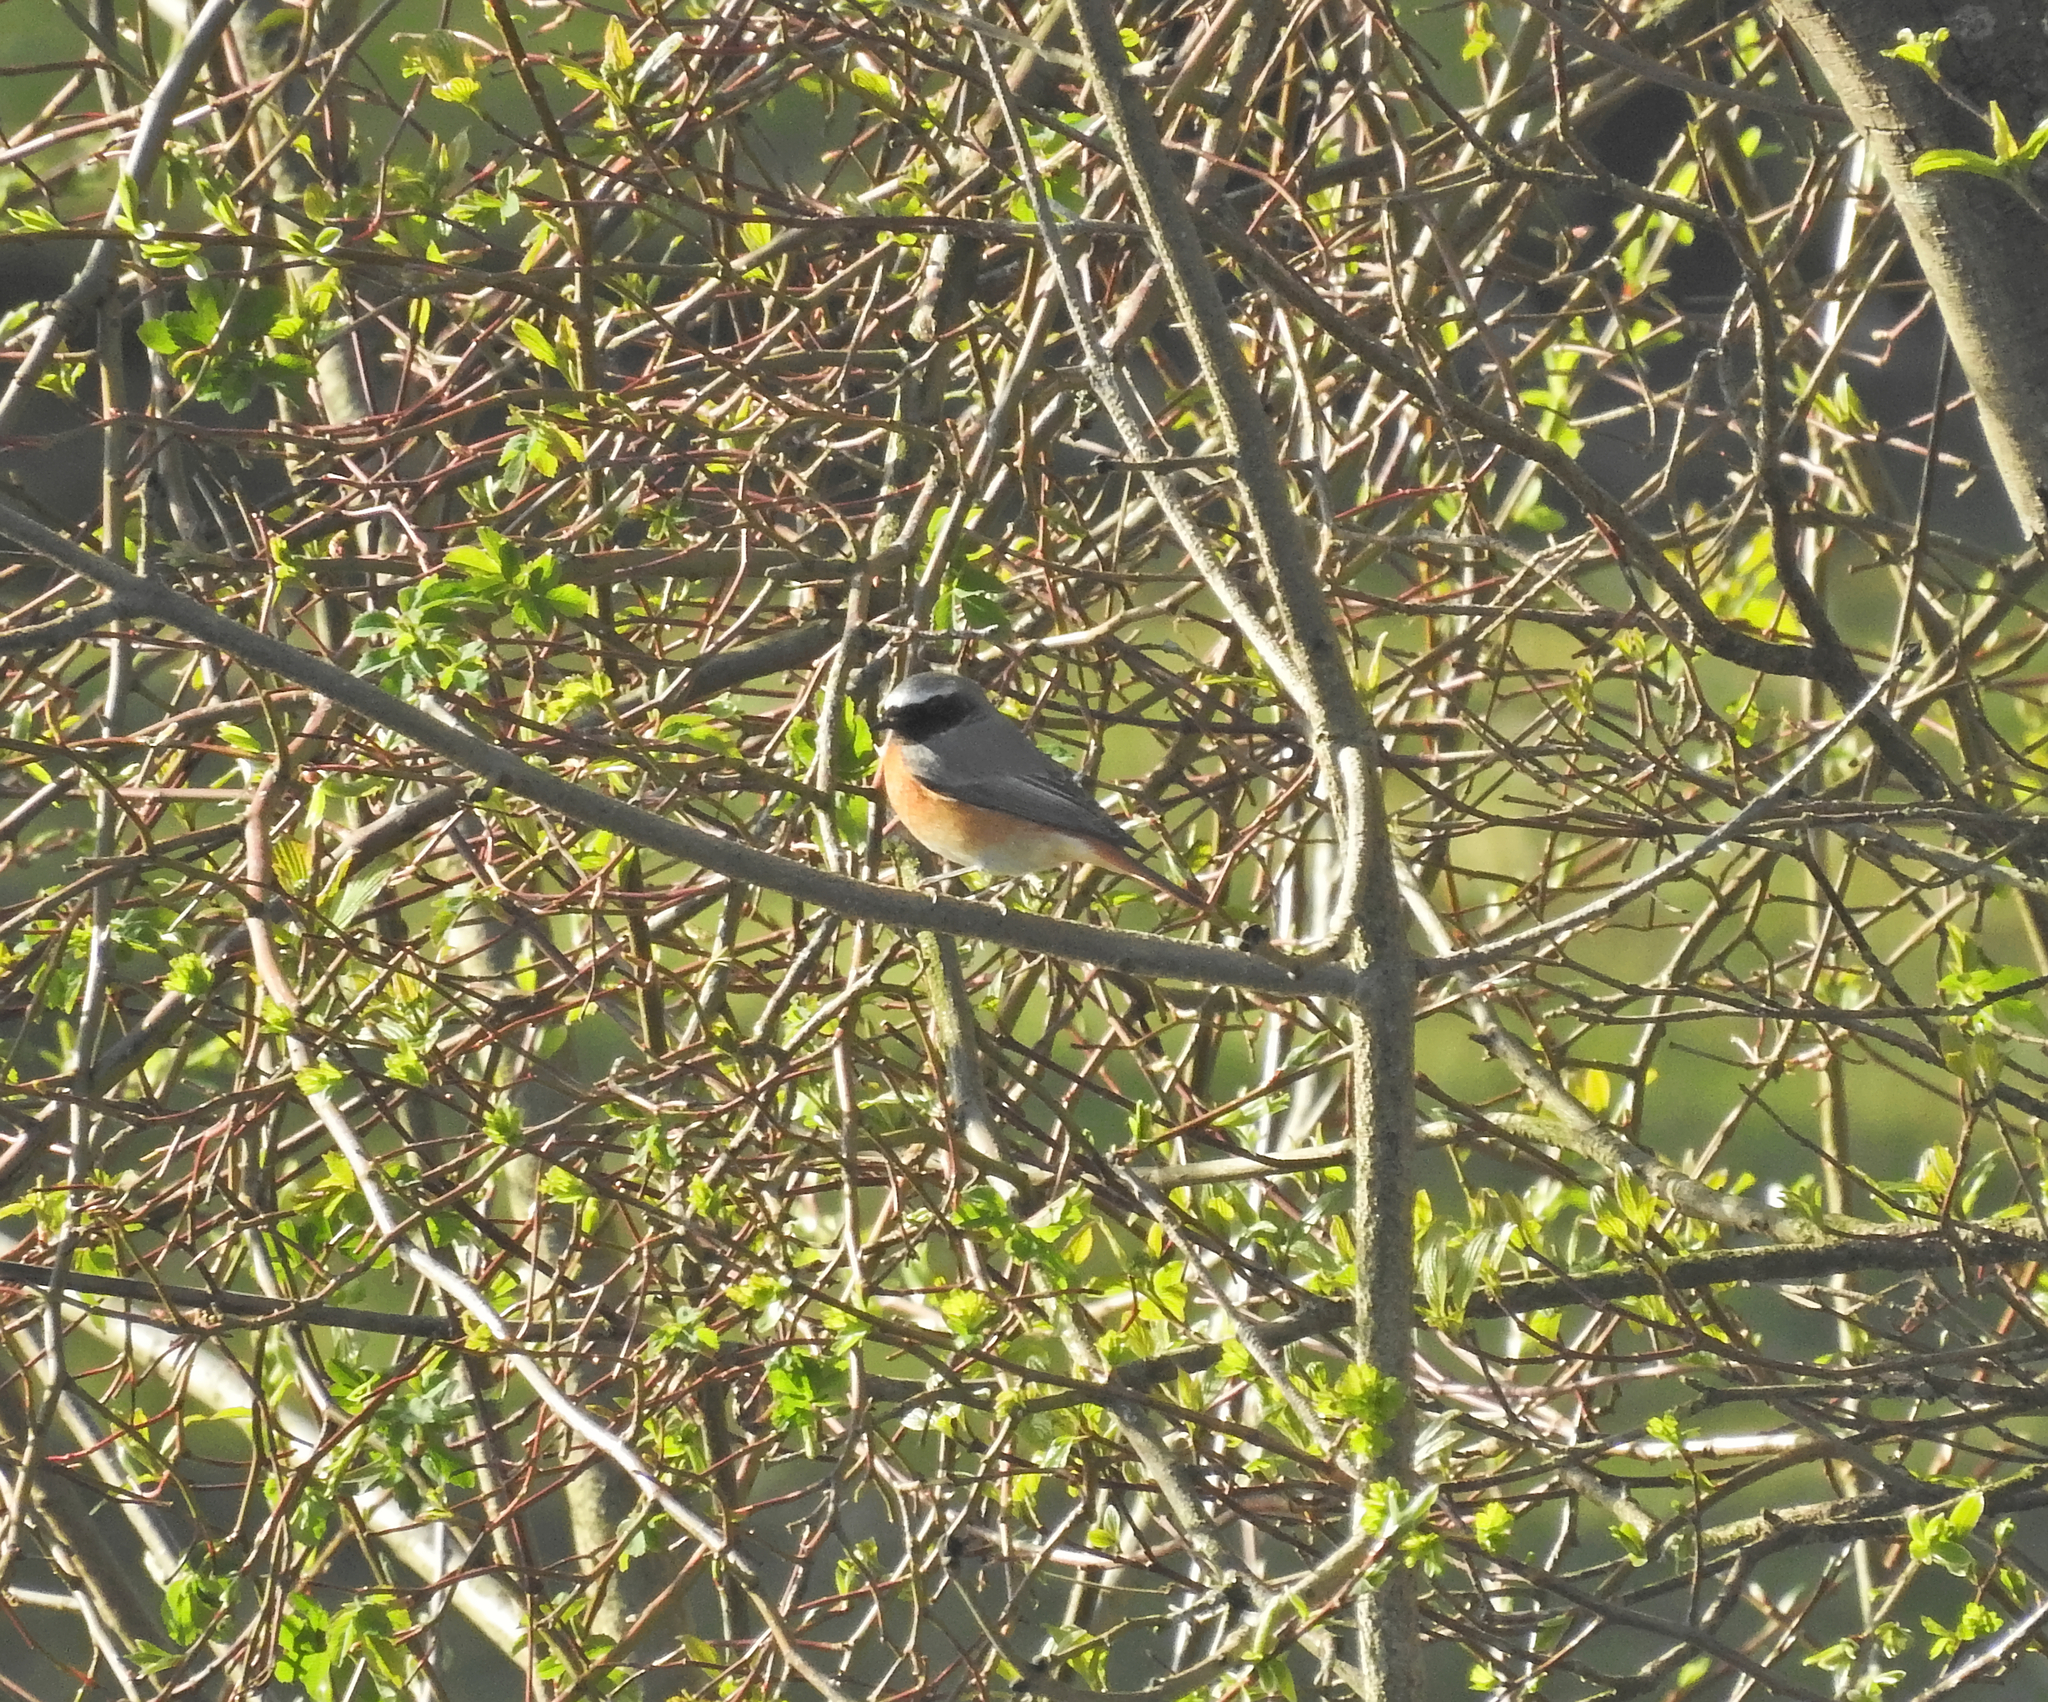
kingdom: Animalia
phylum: Chordata
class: Aves
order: Passeriformes
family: Muscicapidae
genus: Phoenicurus
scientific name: Phoenicurus phoenicurus
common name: Common redstart
